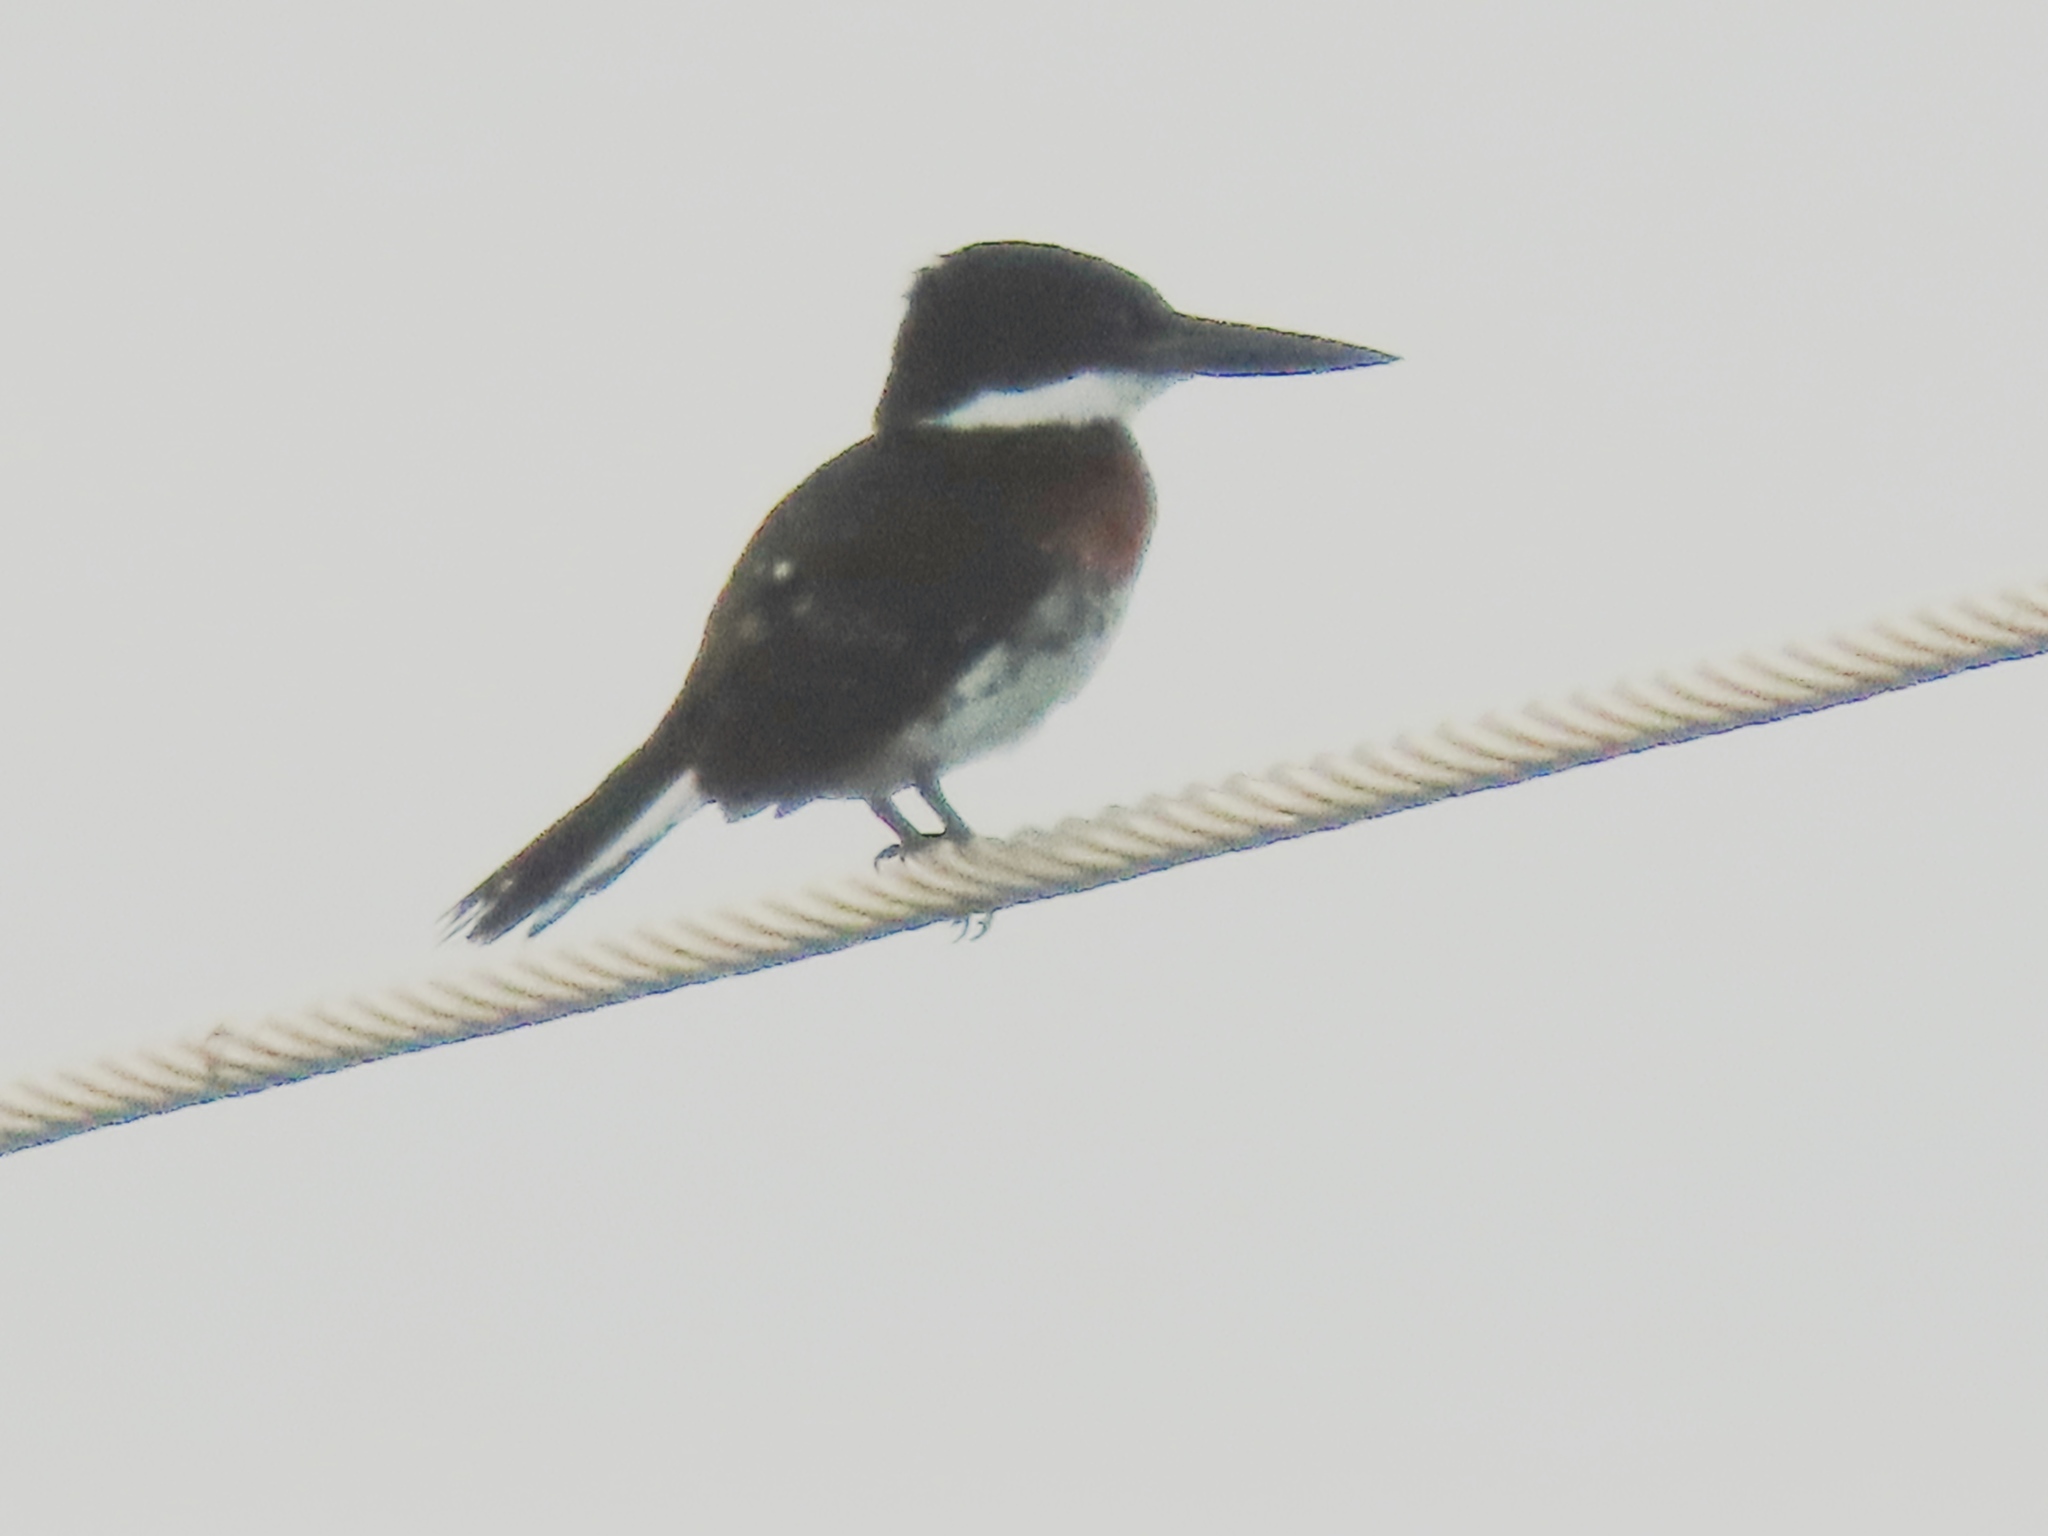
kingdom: Animalia
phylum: Chordata
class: Aves
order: Coraciiformes
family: Alcedinidae
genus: Chloroceryle
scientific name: Chloroceryle americana
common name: Green kingfisher
